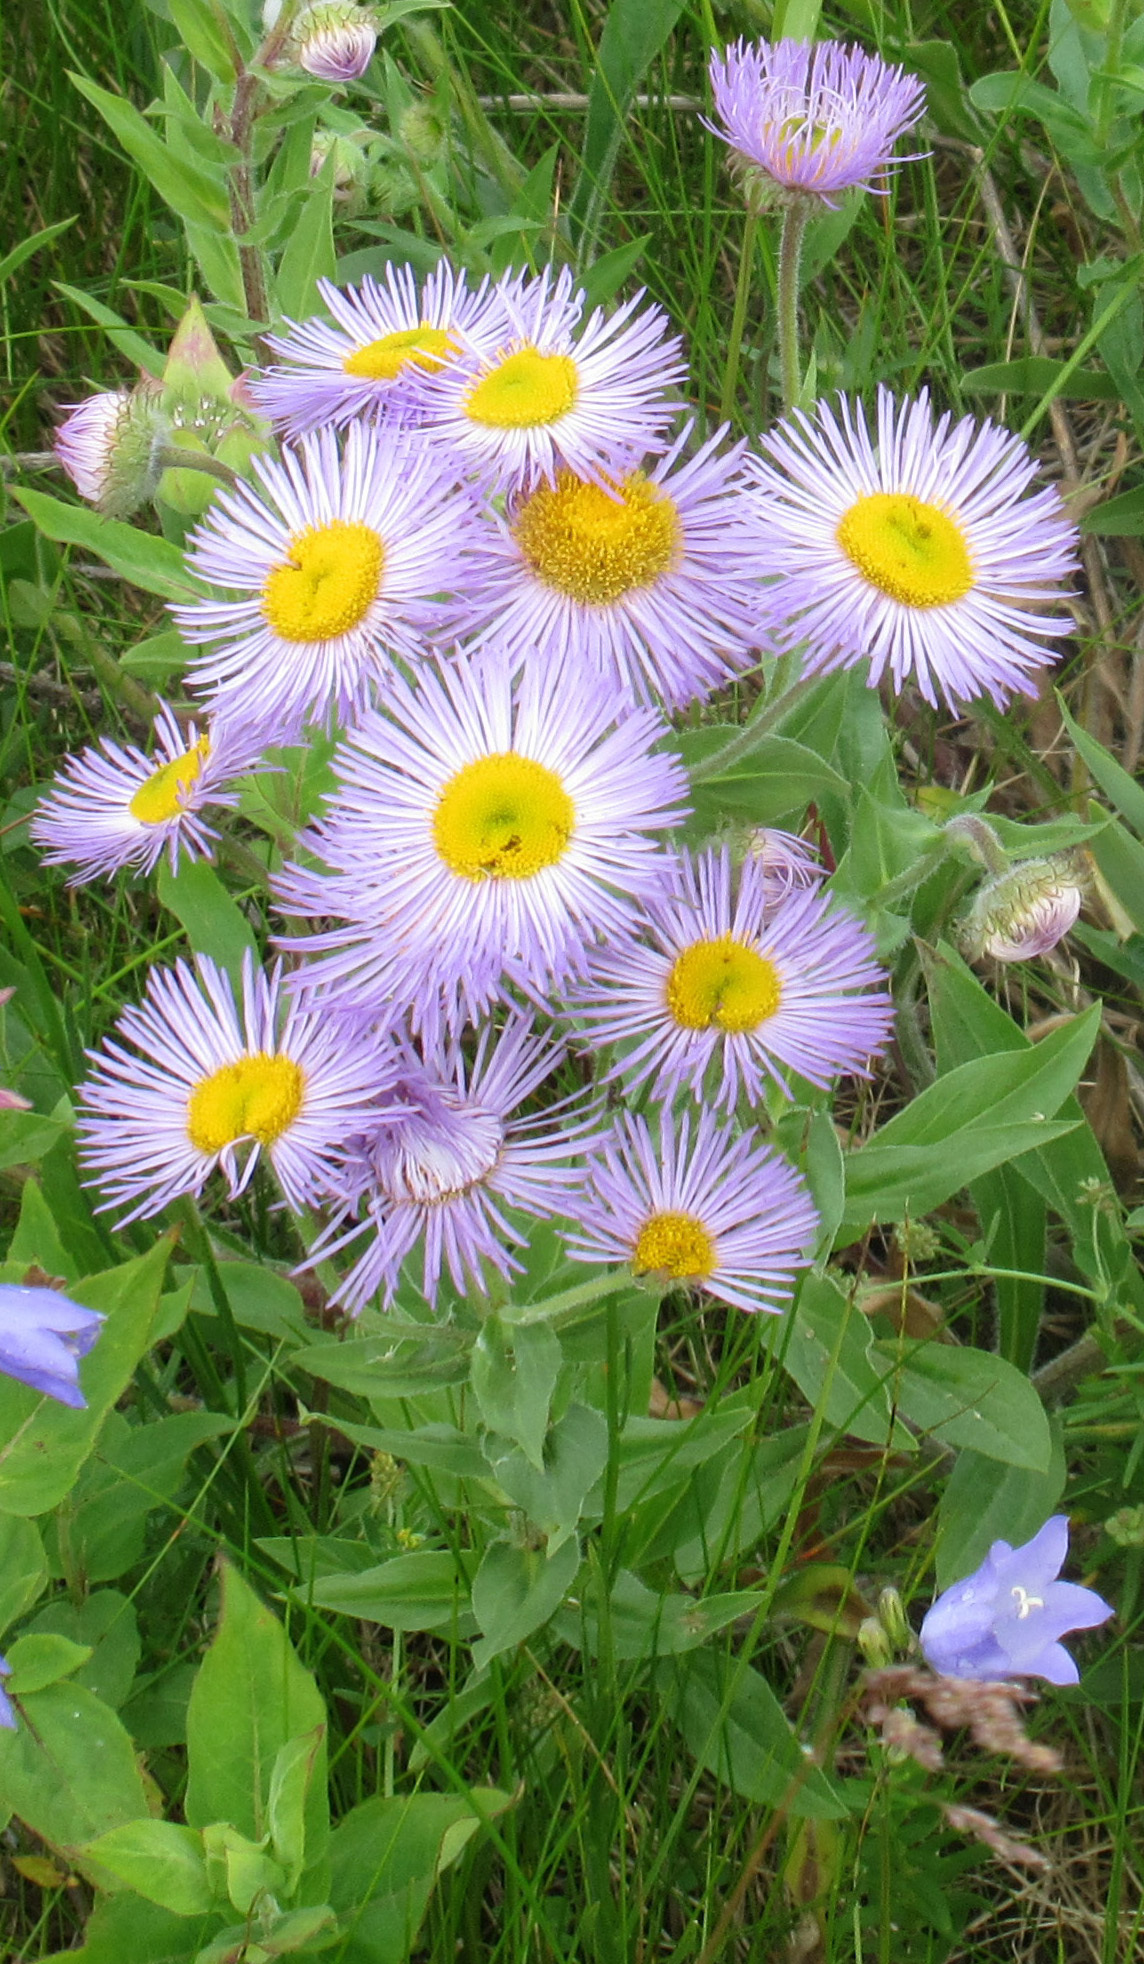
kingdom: Plantae
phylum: Tracheophyta
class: Magnoliopsida
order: Asterales
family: Asteraceae
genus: Erigeron
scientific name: Erigeron speciosus
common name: Aspen fleabane
